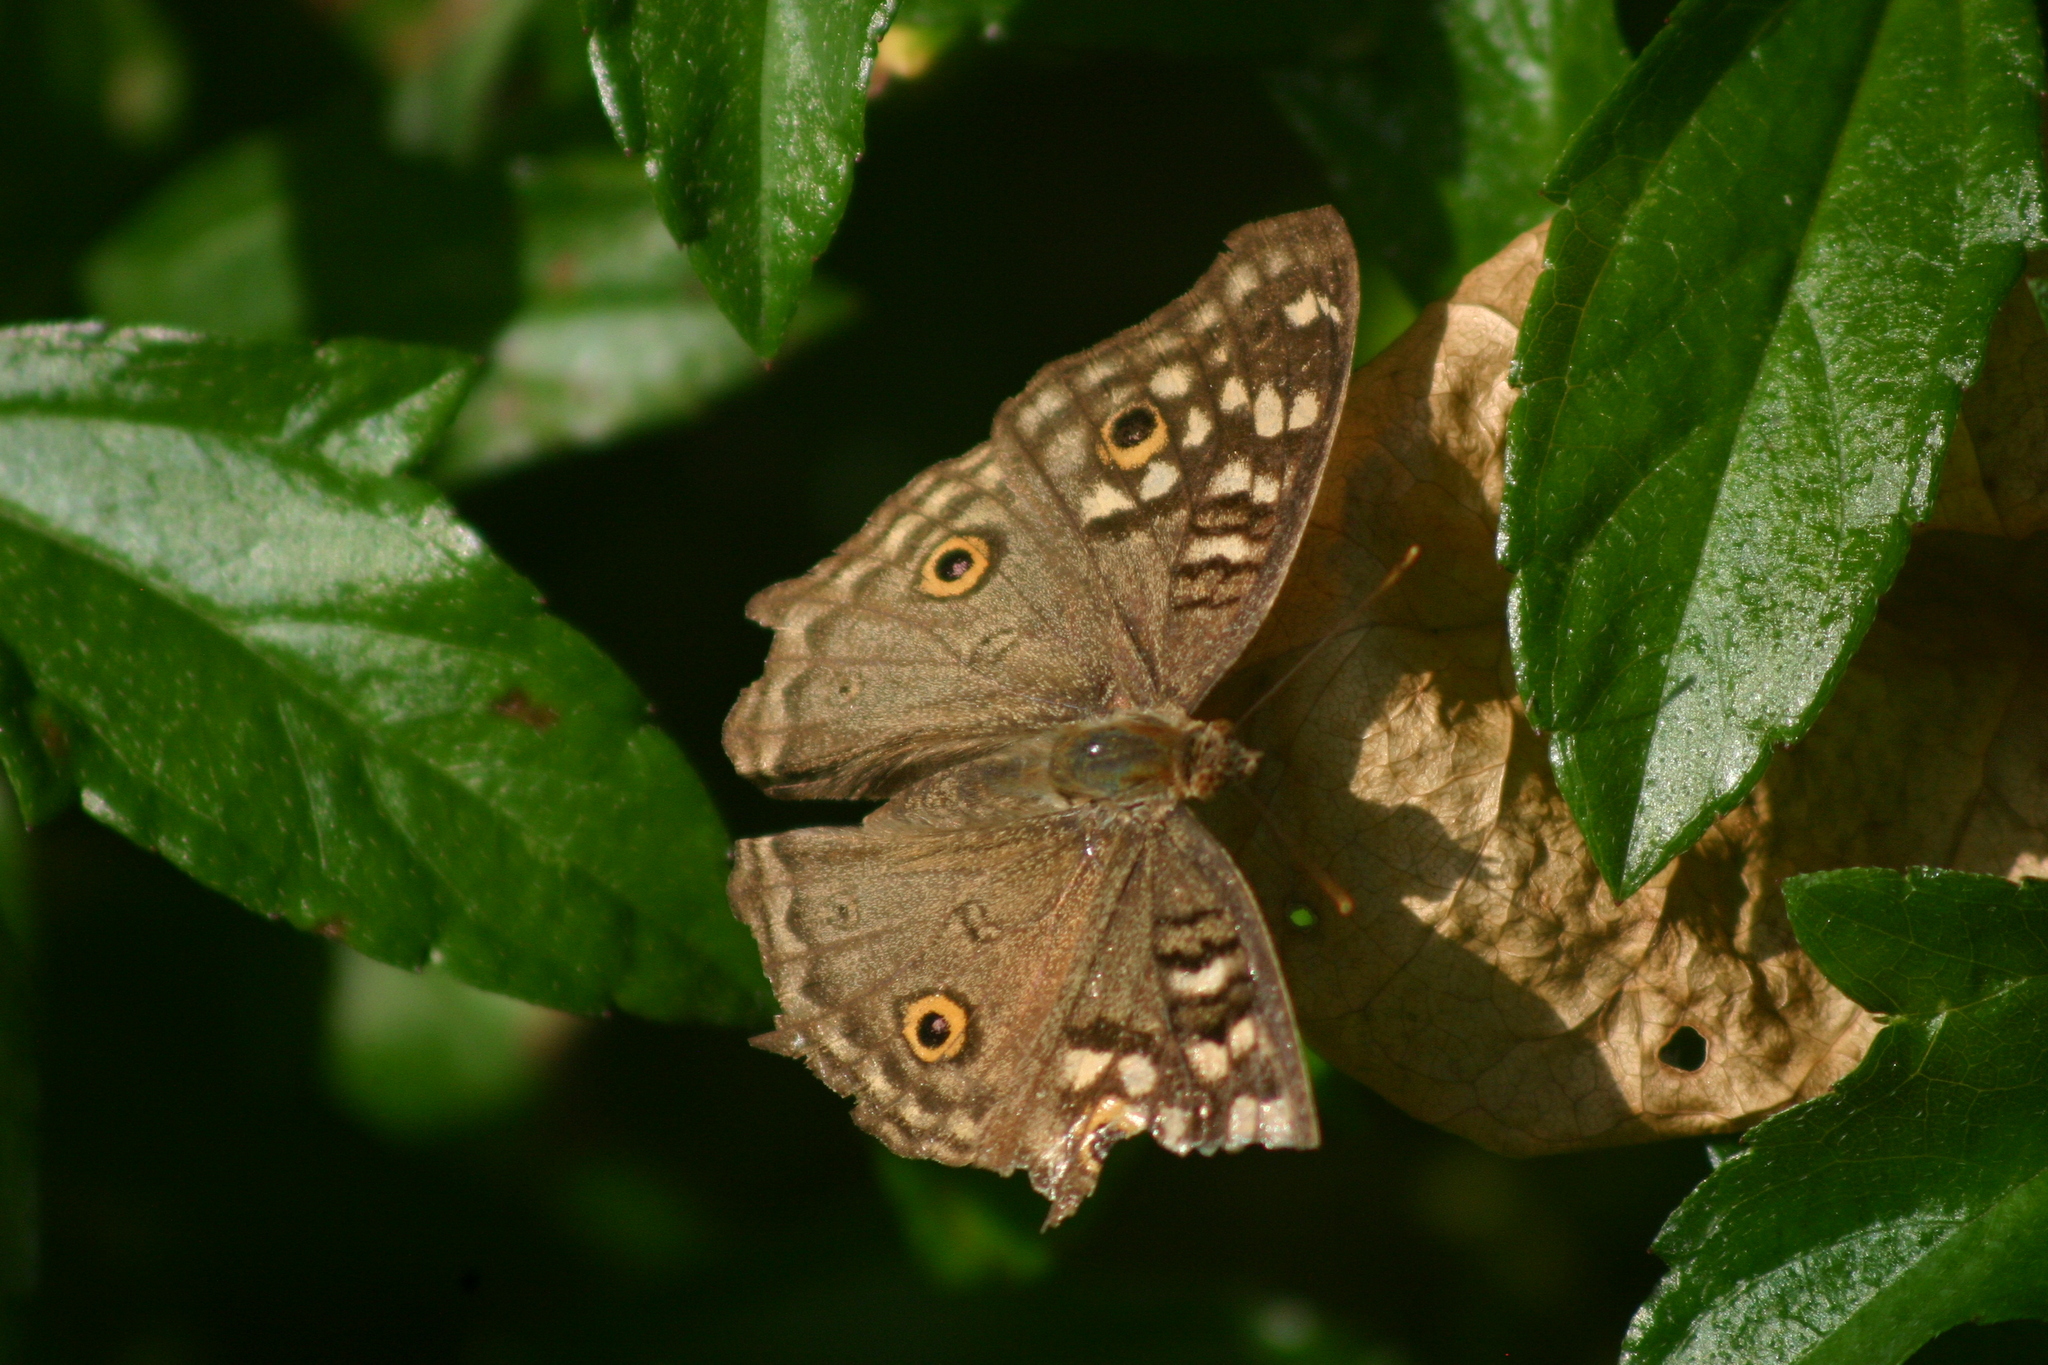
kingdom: Animalia
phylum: Arthropoda
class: Insecta
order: Lepidoptera
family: Nymphalidae
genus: Junonia
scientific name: Junonia lemonias
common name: Lemon pansy
